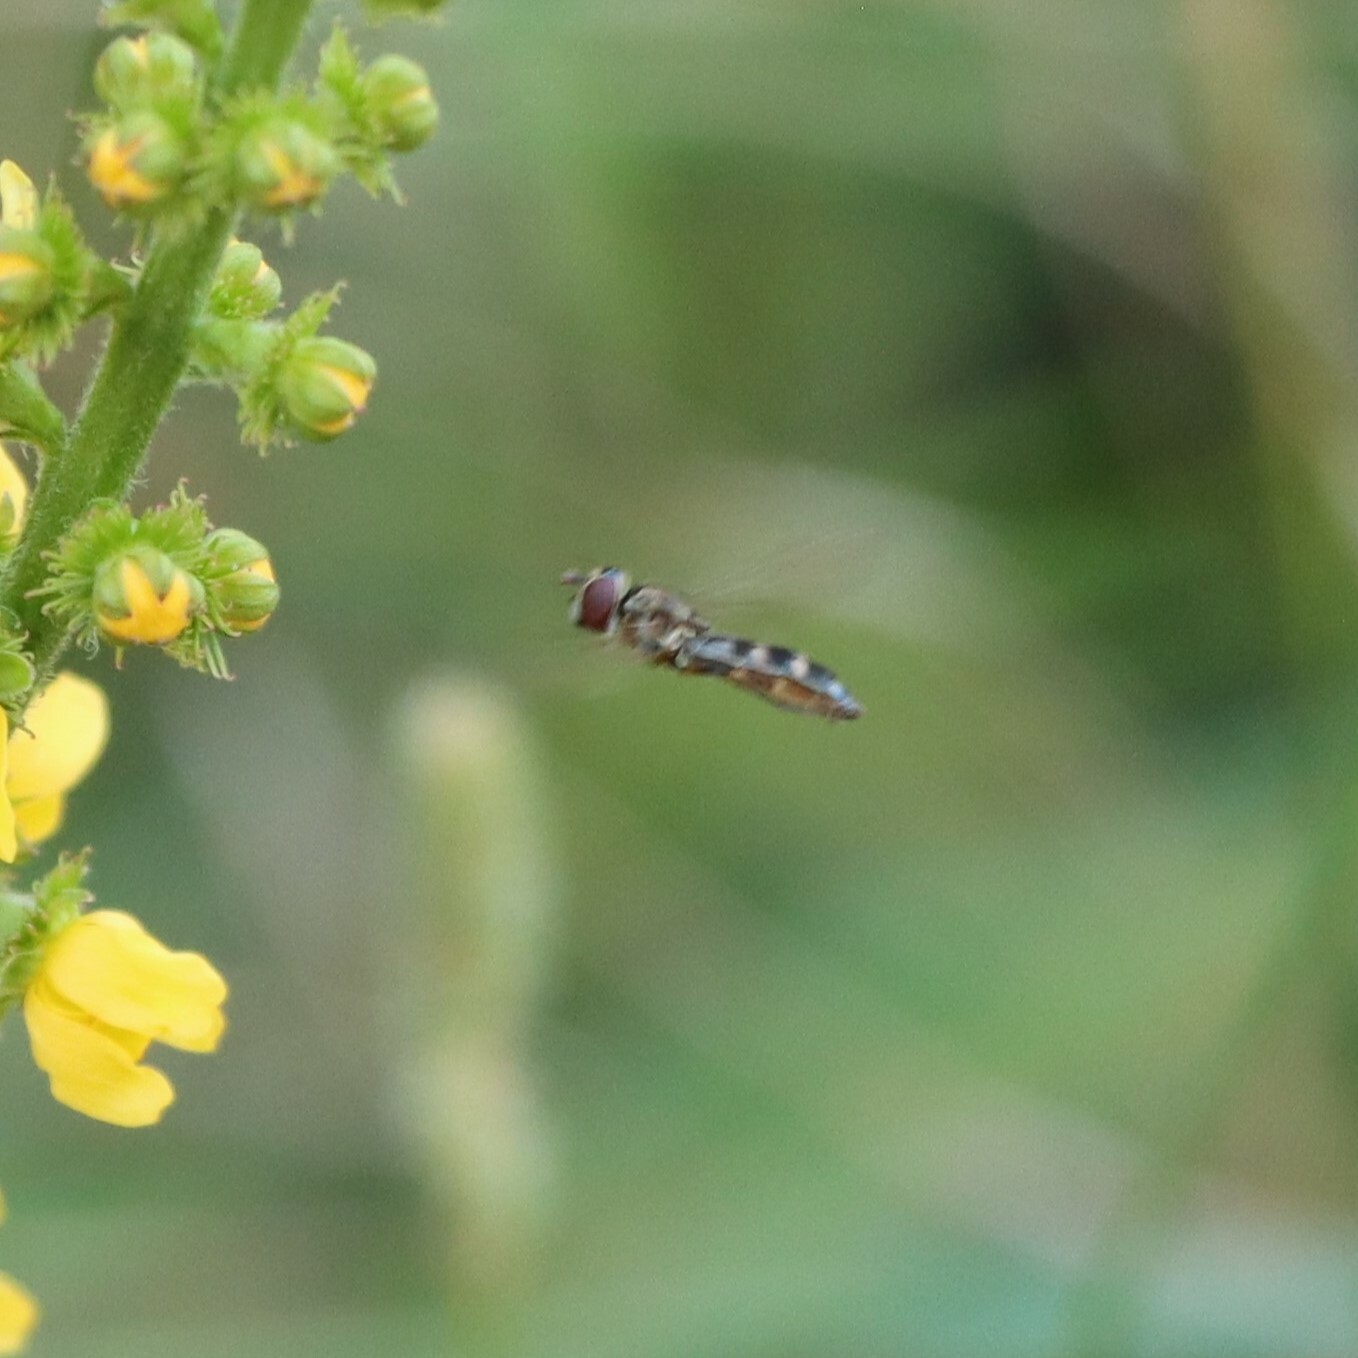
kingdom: Animalia
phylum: Arthropoda
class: Insecta
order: Diptera
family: Syrphidae
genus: Platycheirus
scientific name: Platycheirus
